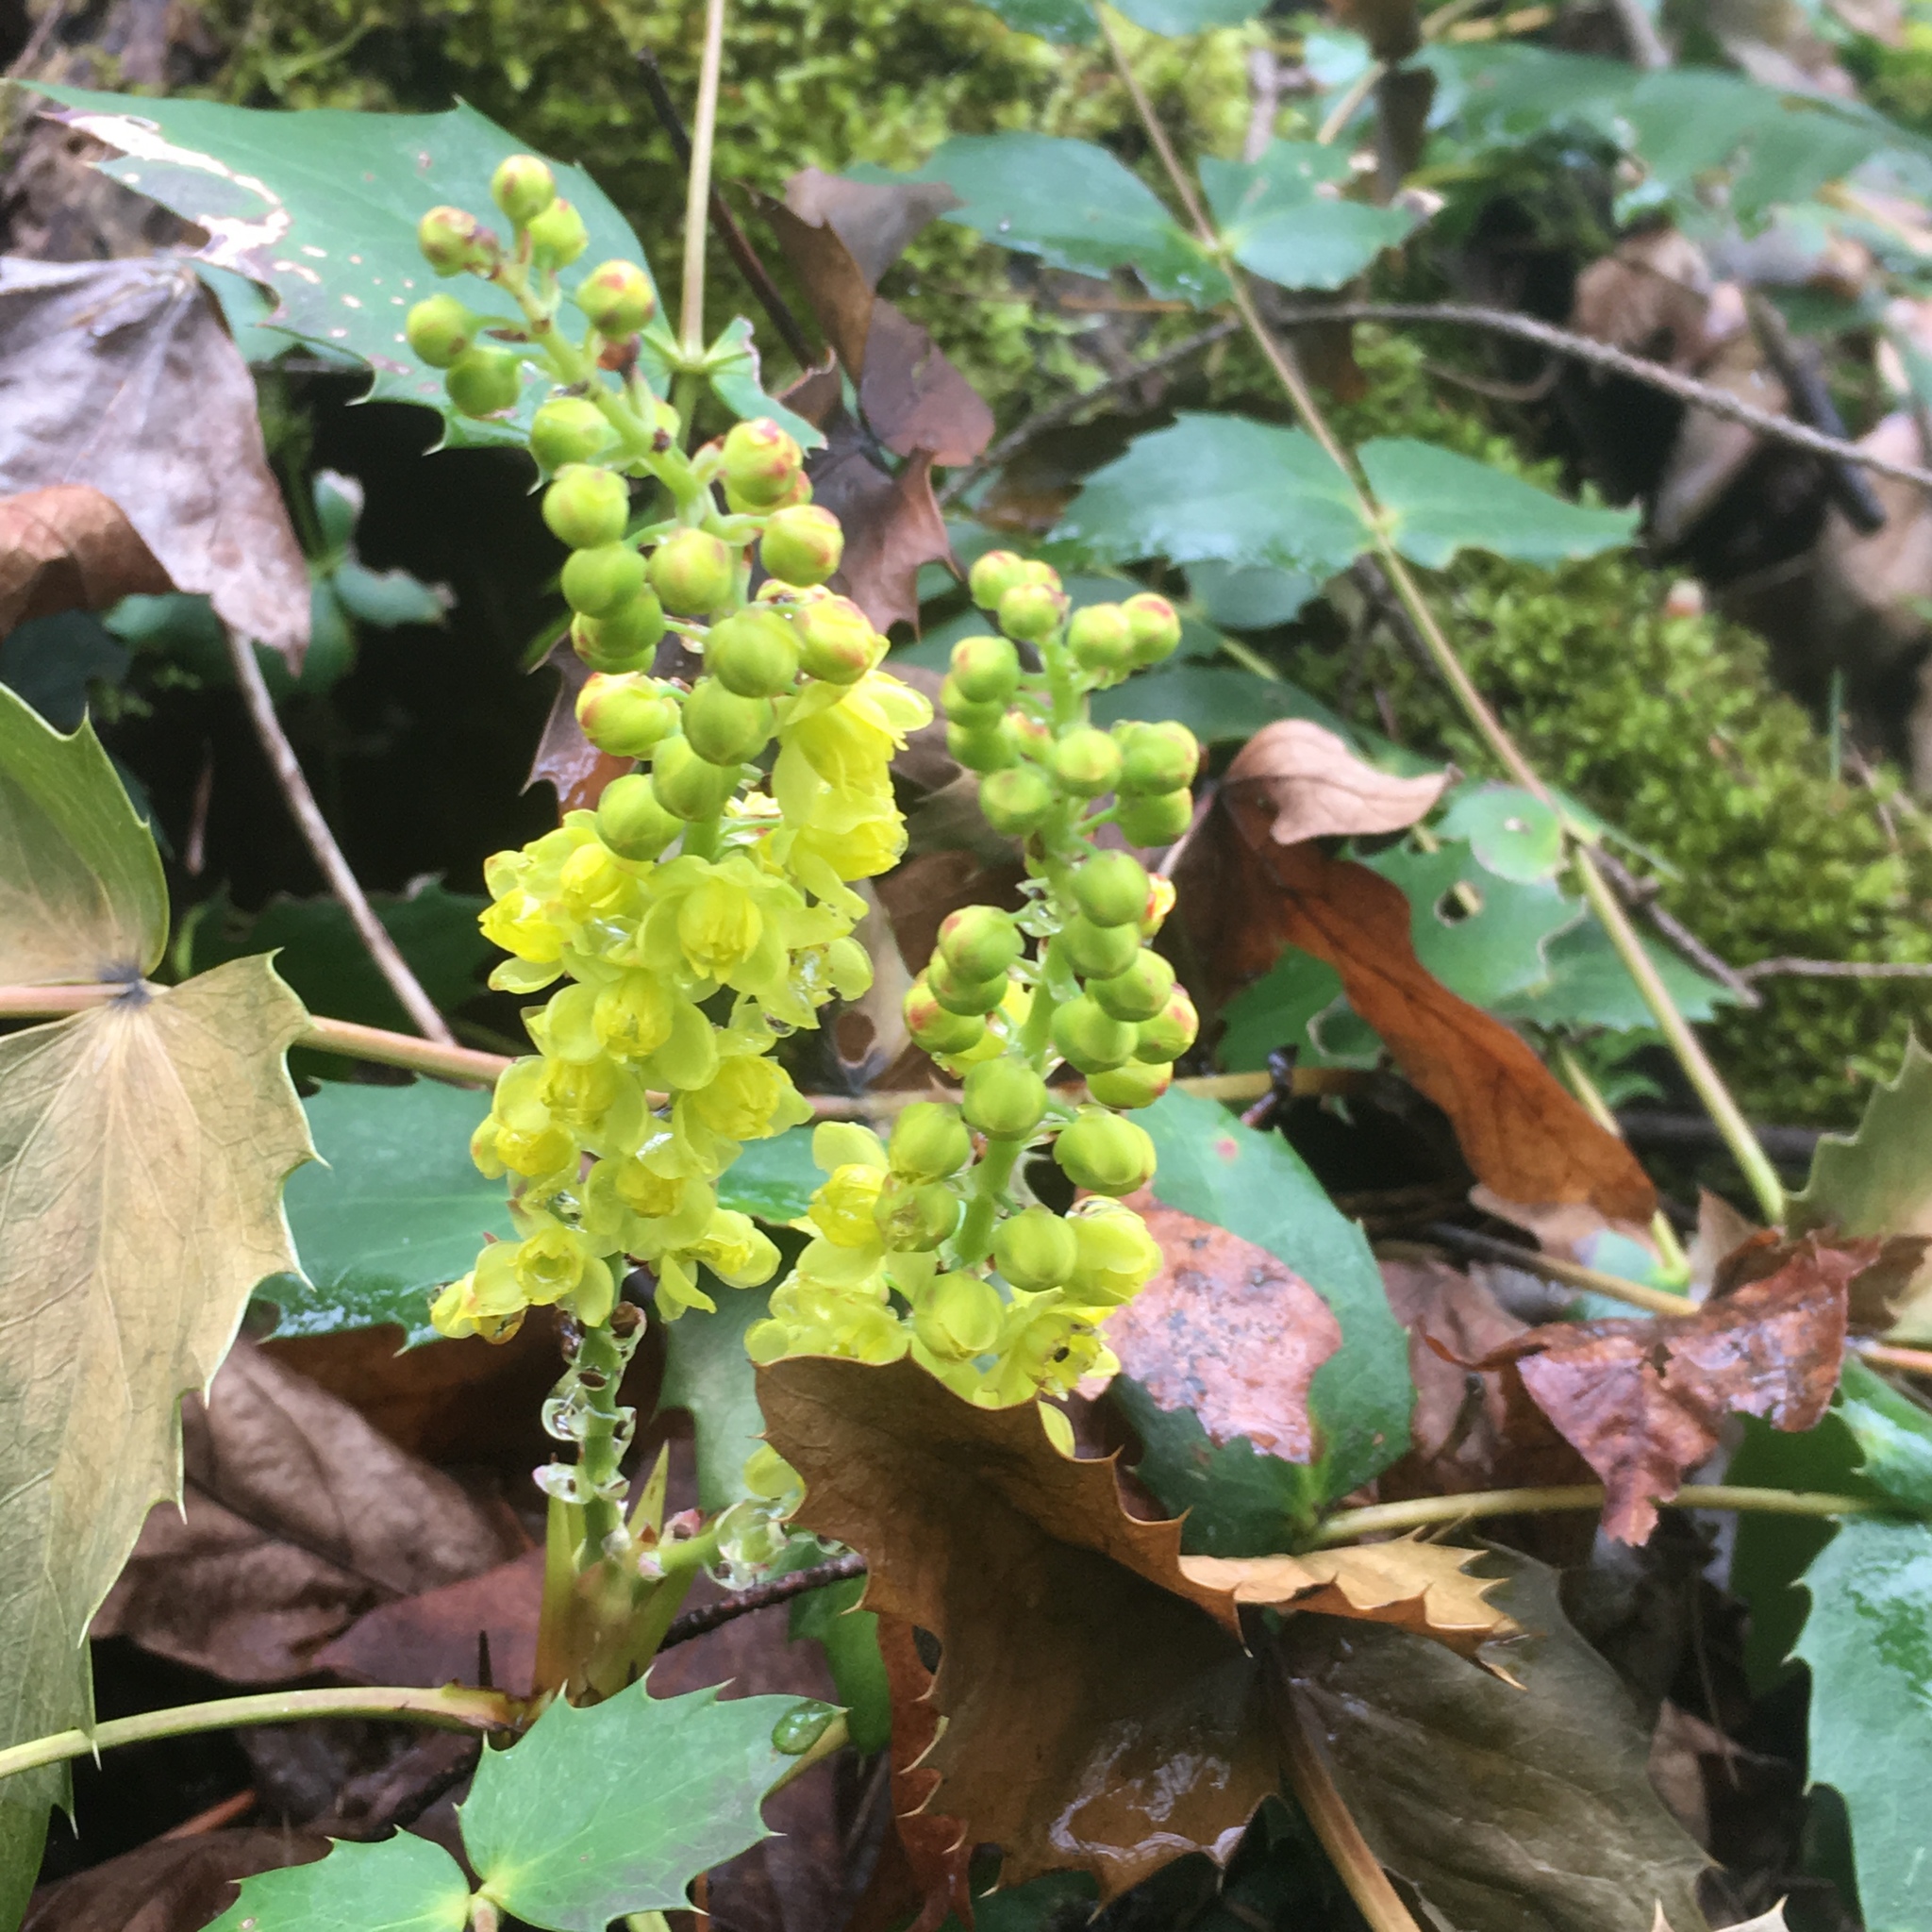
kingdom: Plantae
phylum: Tracheophyta
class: Magnoliopsida
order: Ranunculales
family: Berberidaceae
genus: Mahonia
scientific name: Mahonia nervosa
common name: Cascade oregon-grape
